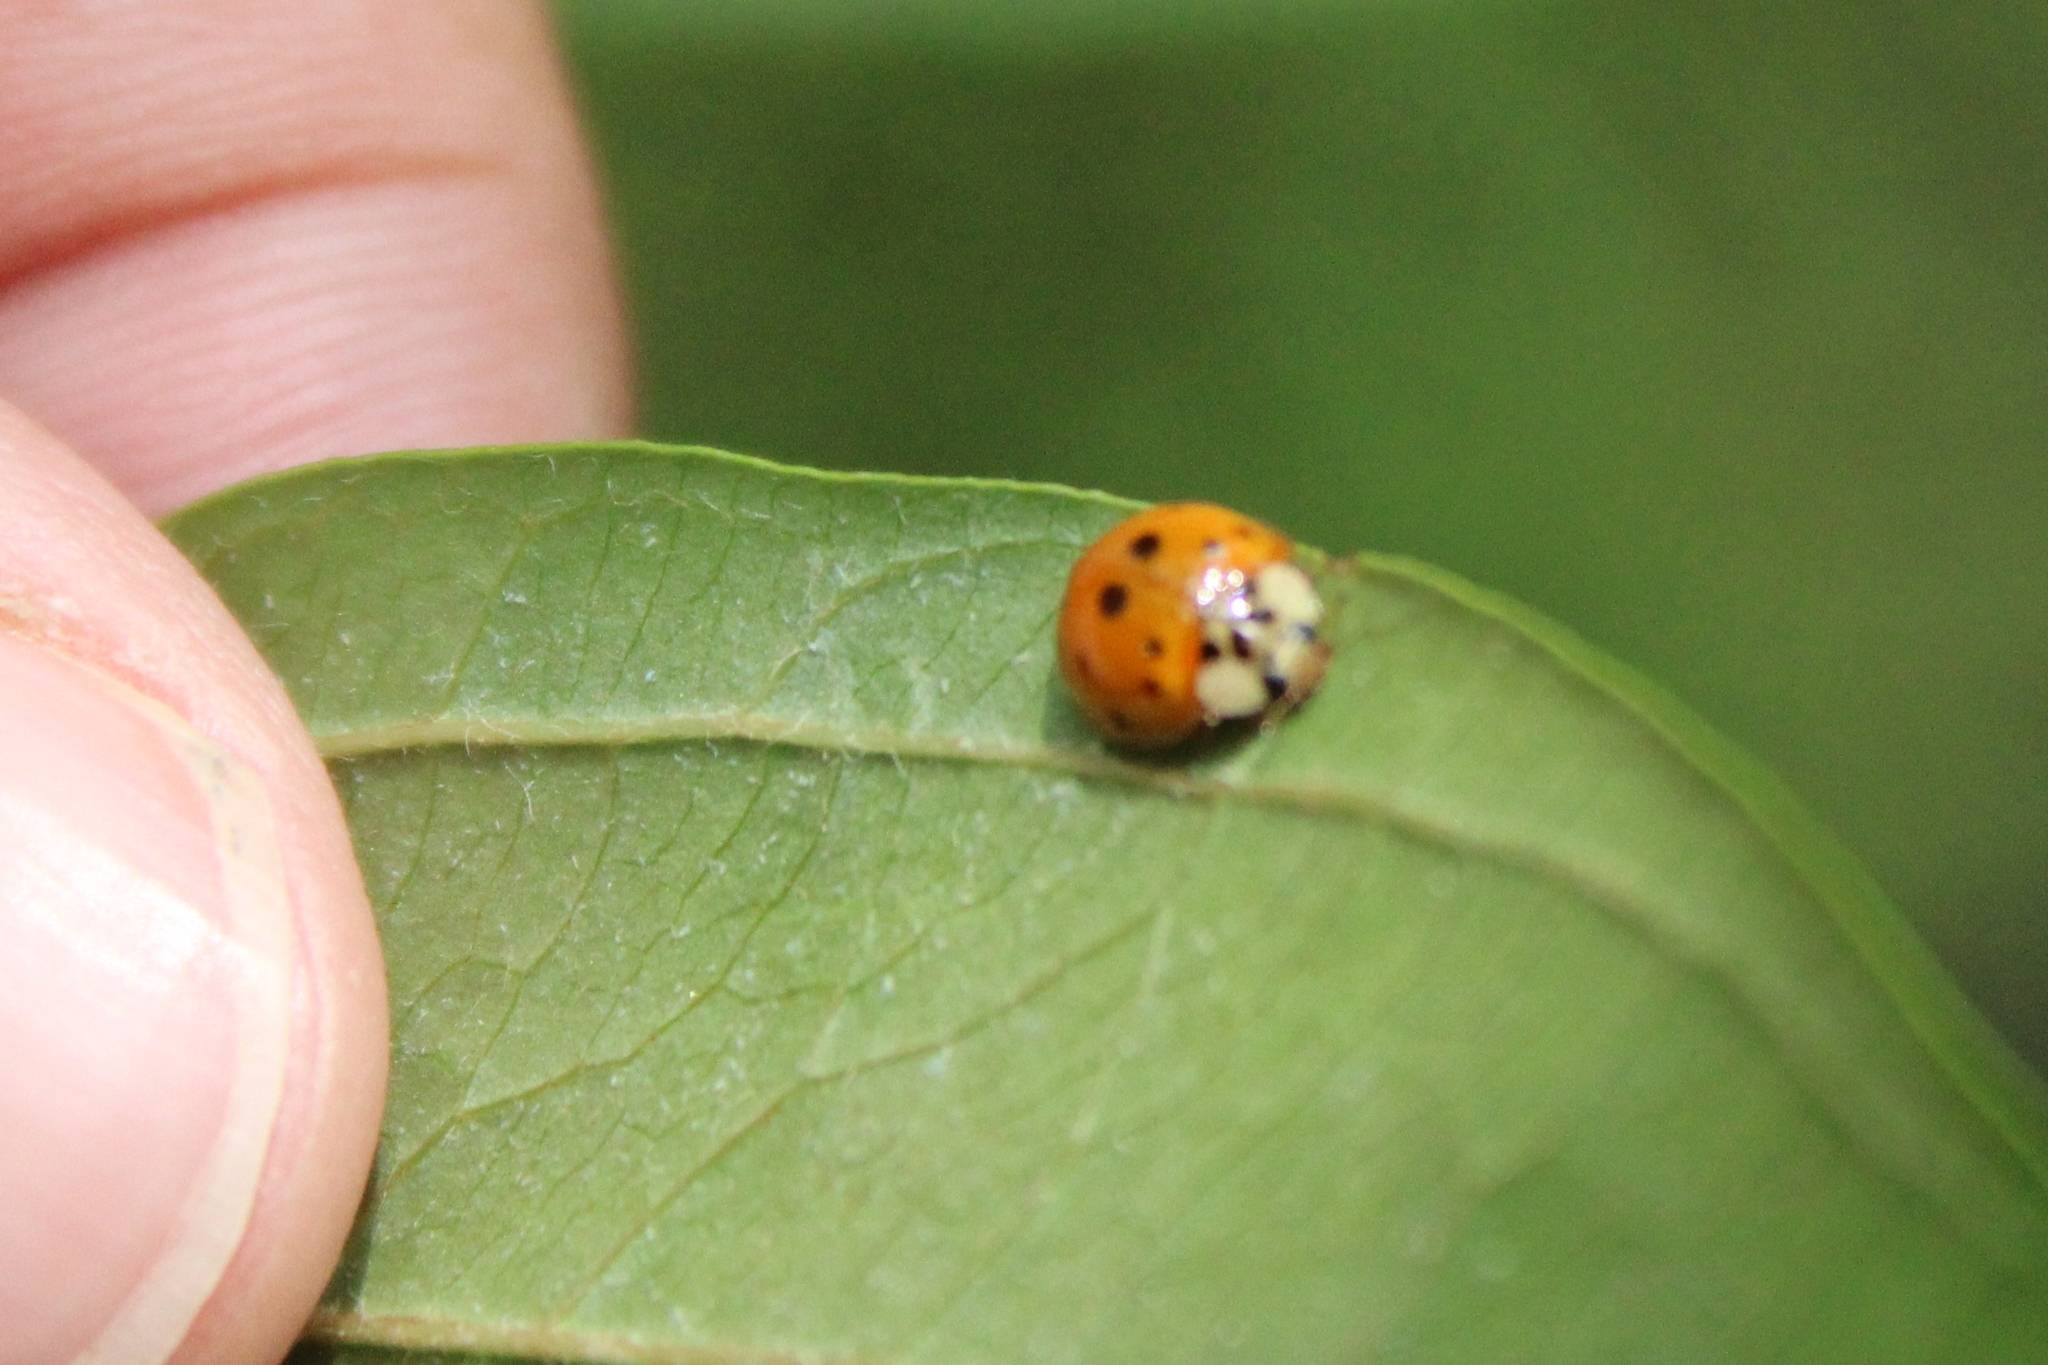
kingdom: Animalia
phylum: Arthropoda
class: Insecta
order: Coleoptera
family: Coccinellidae
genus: Harmonia
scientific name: Harmonia axyridis
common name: Harlequin ladybird
